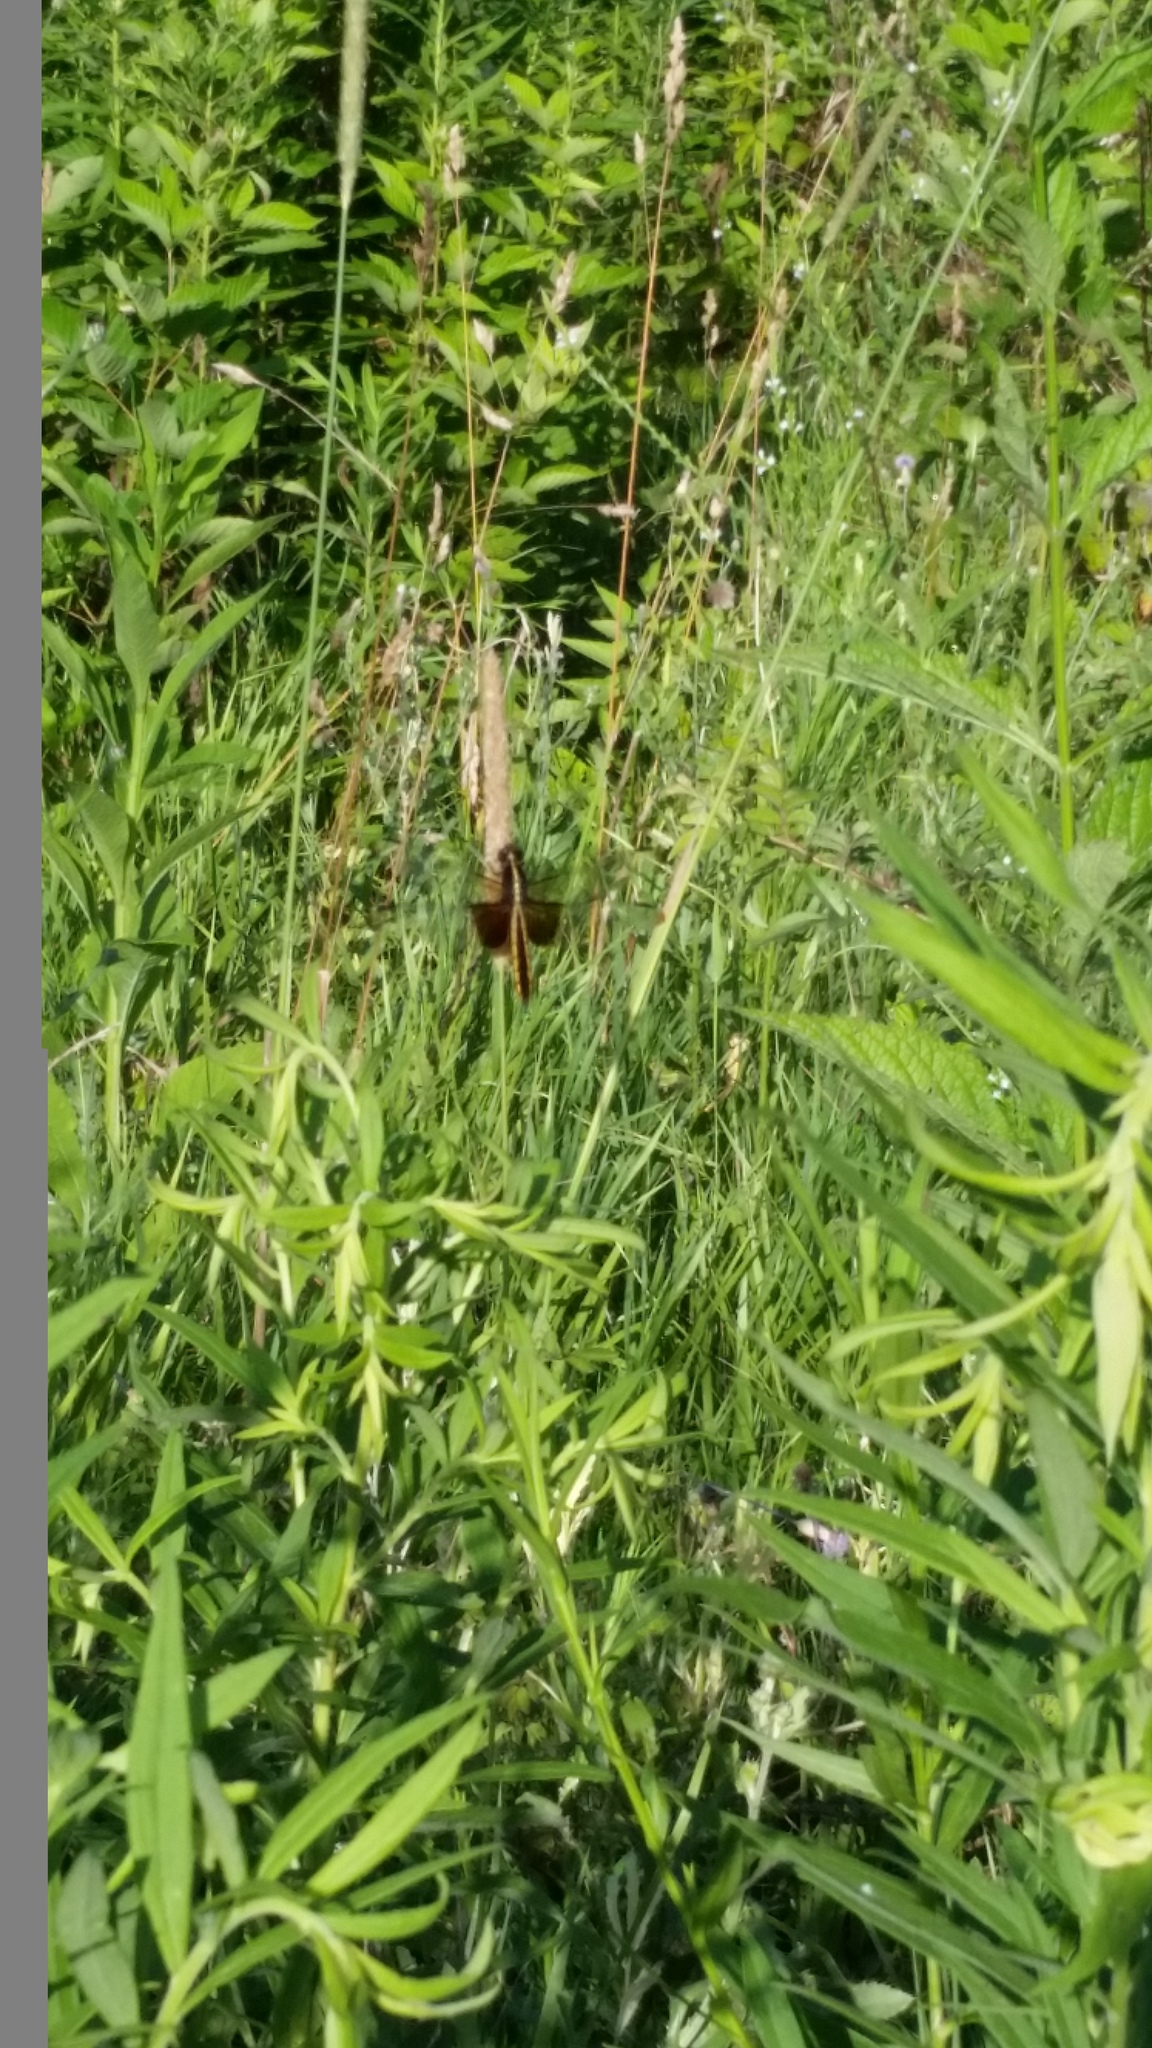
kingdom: Animalia
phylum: Arthropoda
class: Insecta
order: Odonata
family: Libellulidae
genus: Libellula
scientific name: Libellula luctuosa
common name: Widow skimmer
